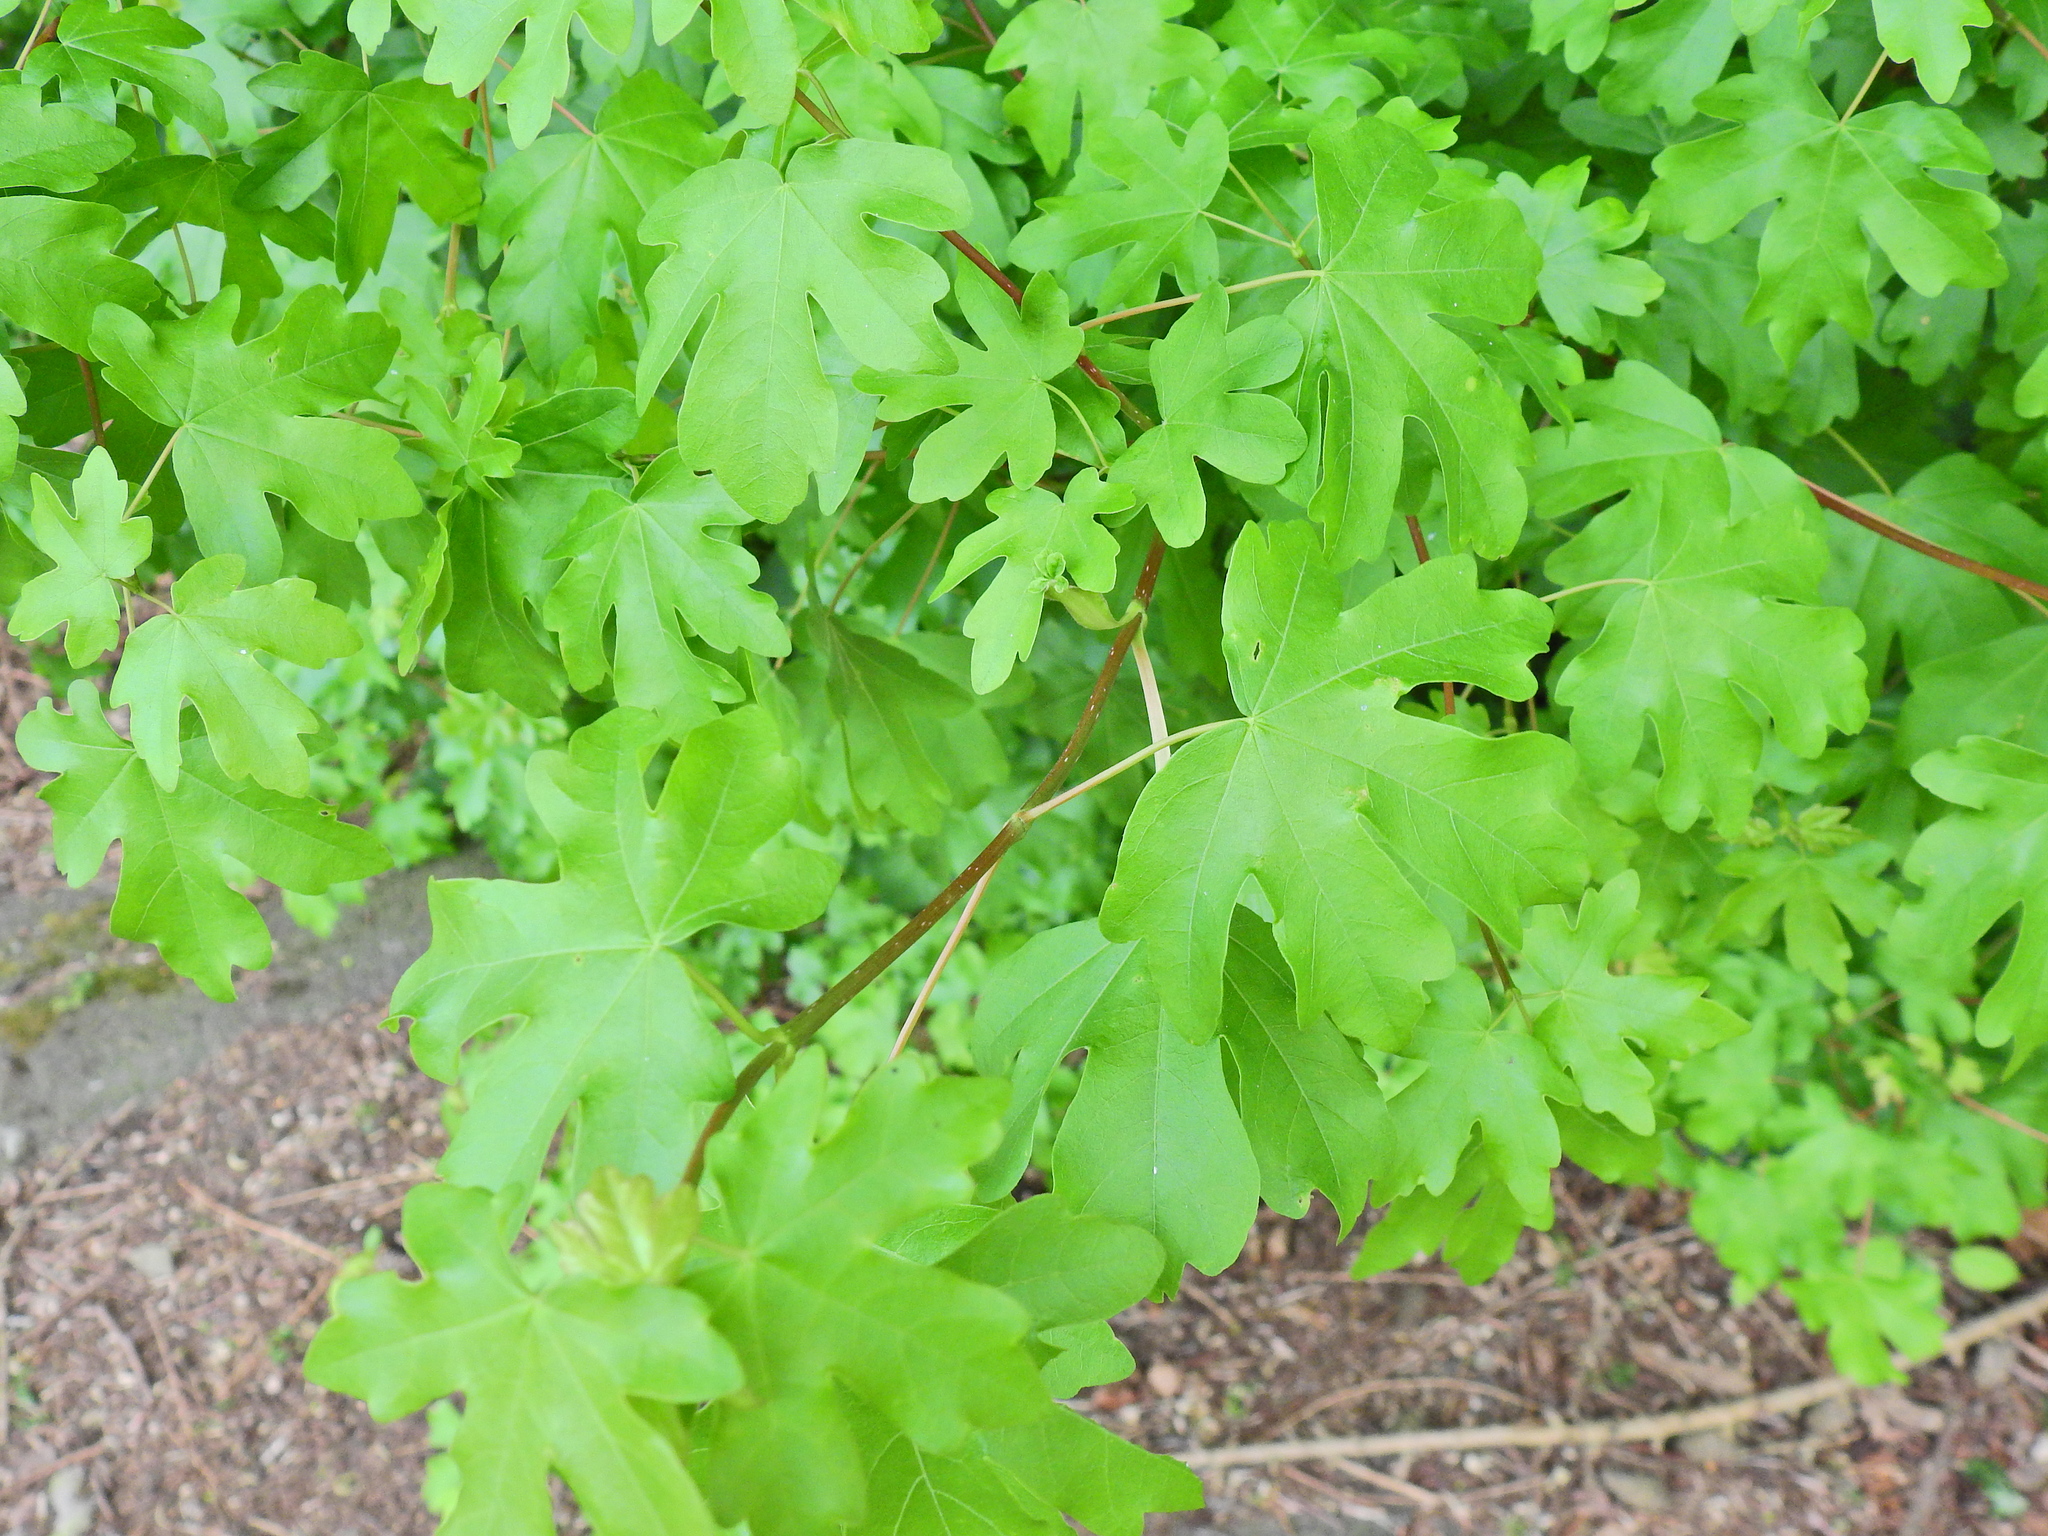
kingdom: Plantae
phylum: Tracheophyta
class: Magnoliopsida
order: Sapindales
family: Sapindaceae
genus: Acer
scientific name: Acer campestre
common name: Field maple
